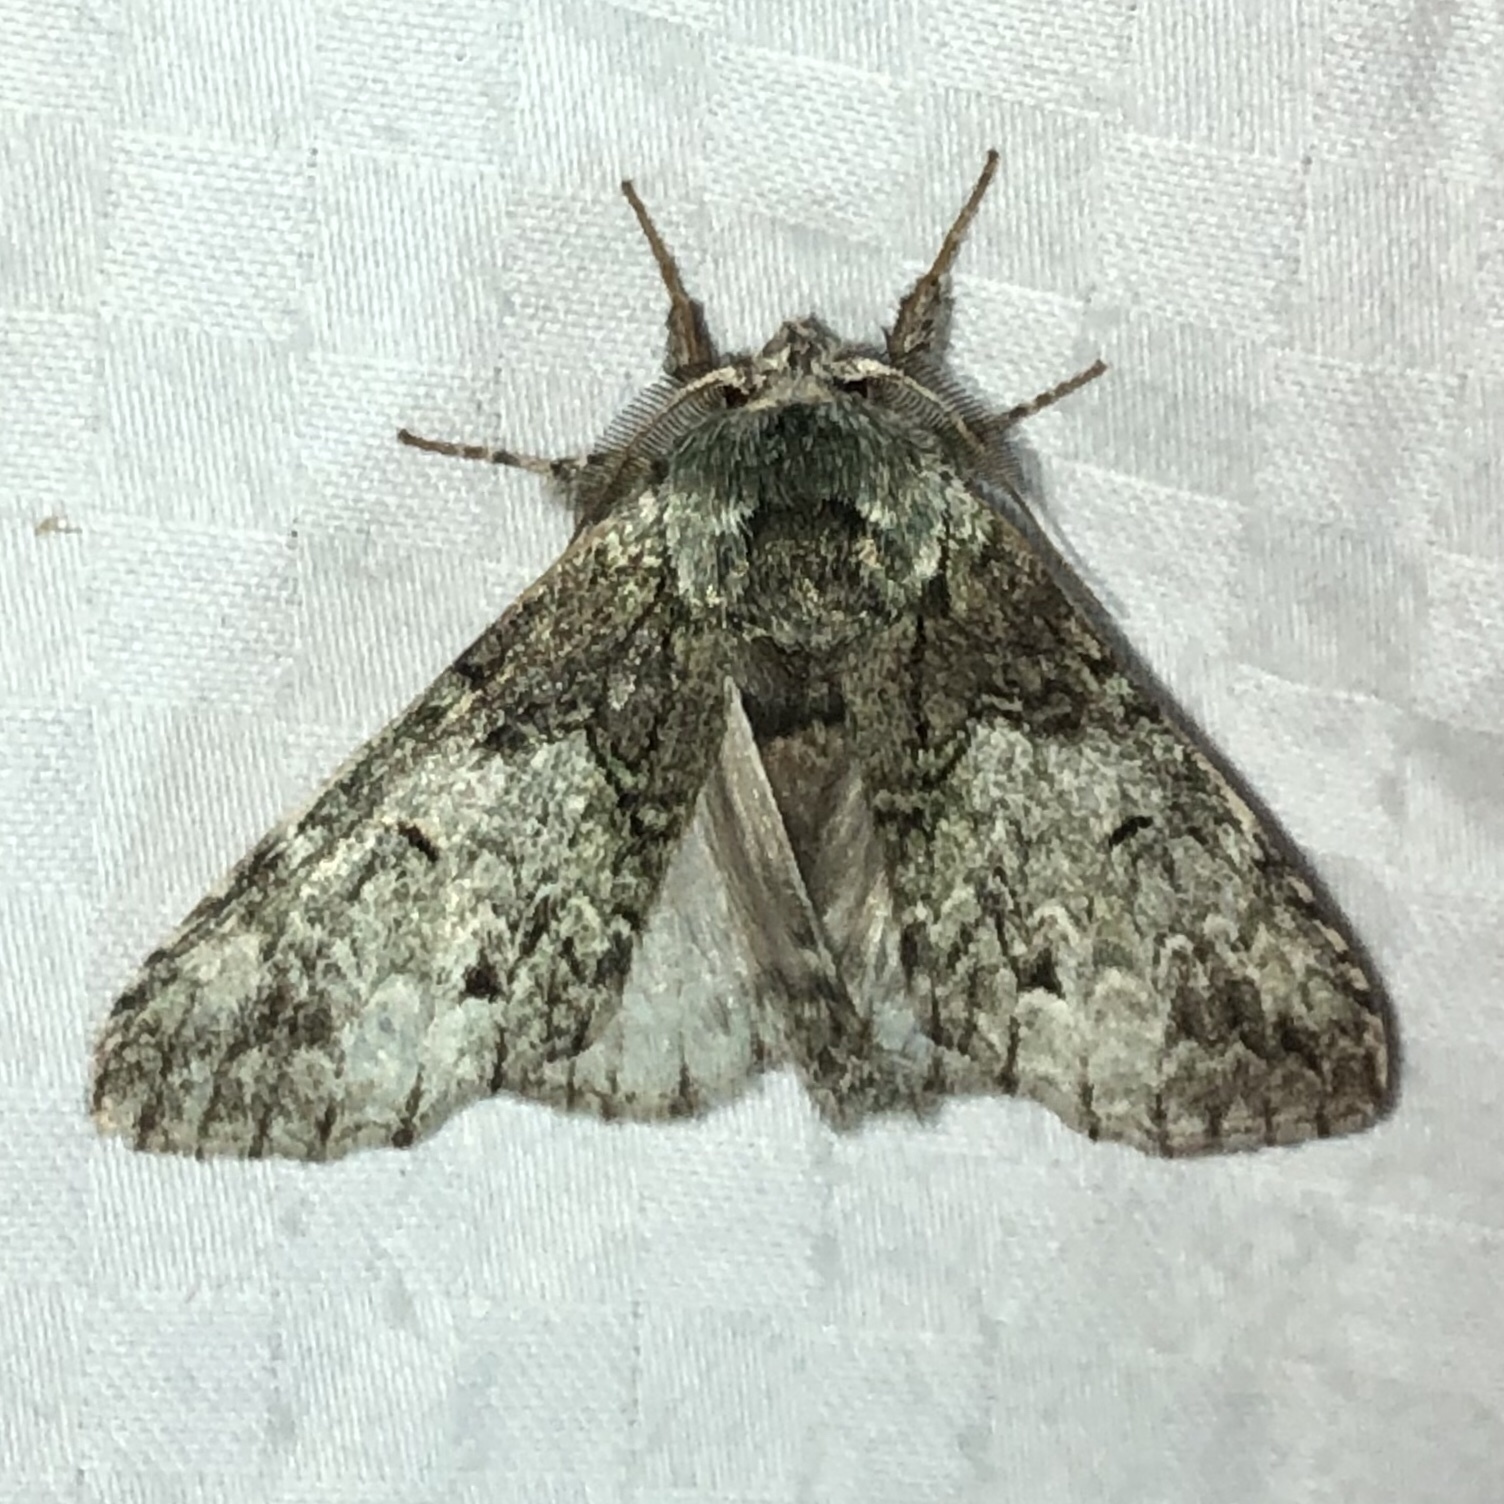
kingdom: Animalia
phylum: Arthropoda
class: Insecta
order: Lepidoptera
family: Notodontidae
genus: Macrurocampa
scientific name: Macrurocampa marthesia
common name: Mottled prominent
